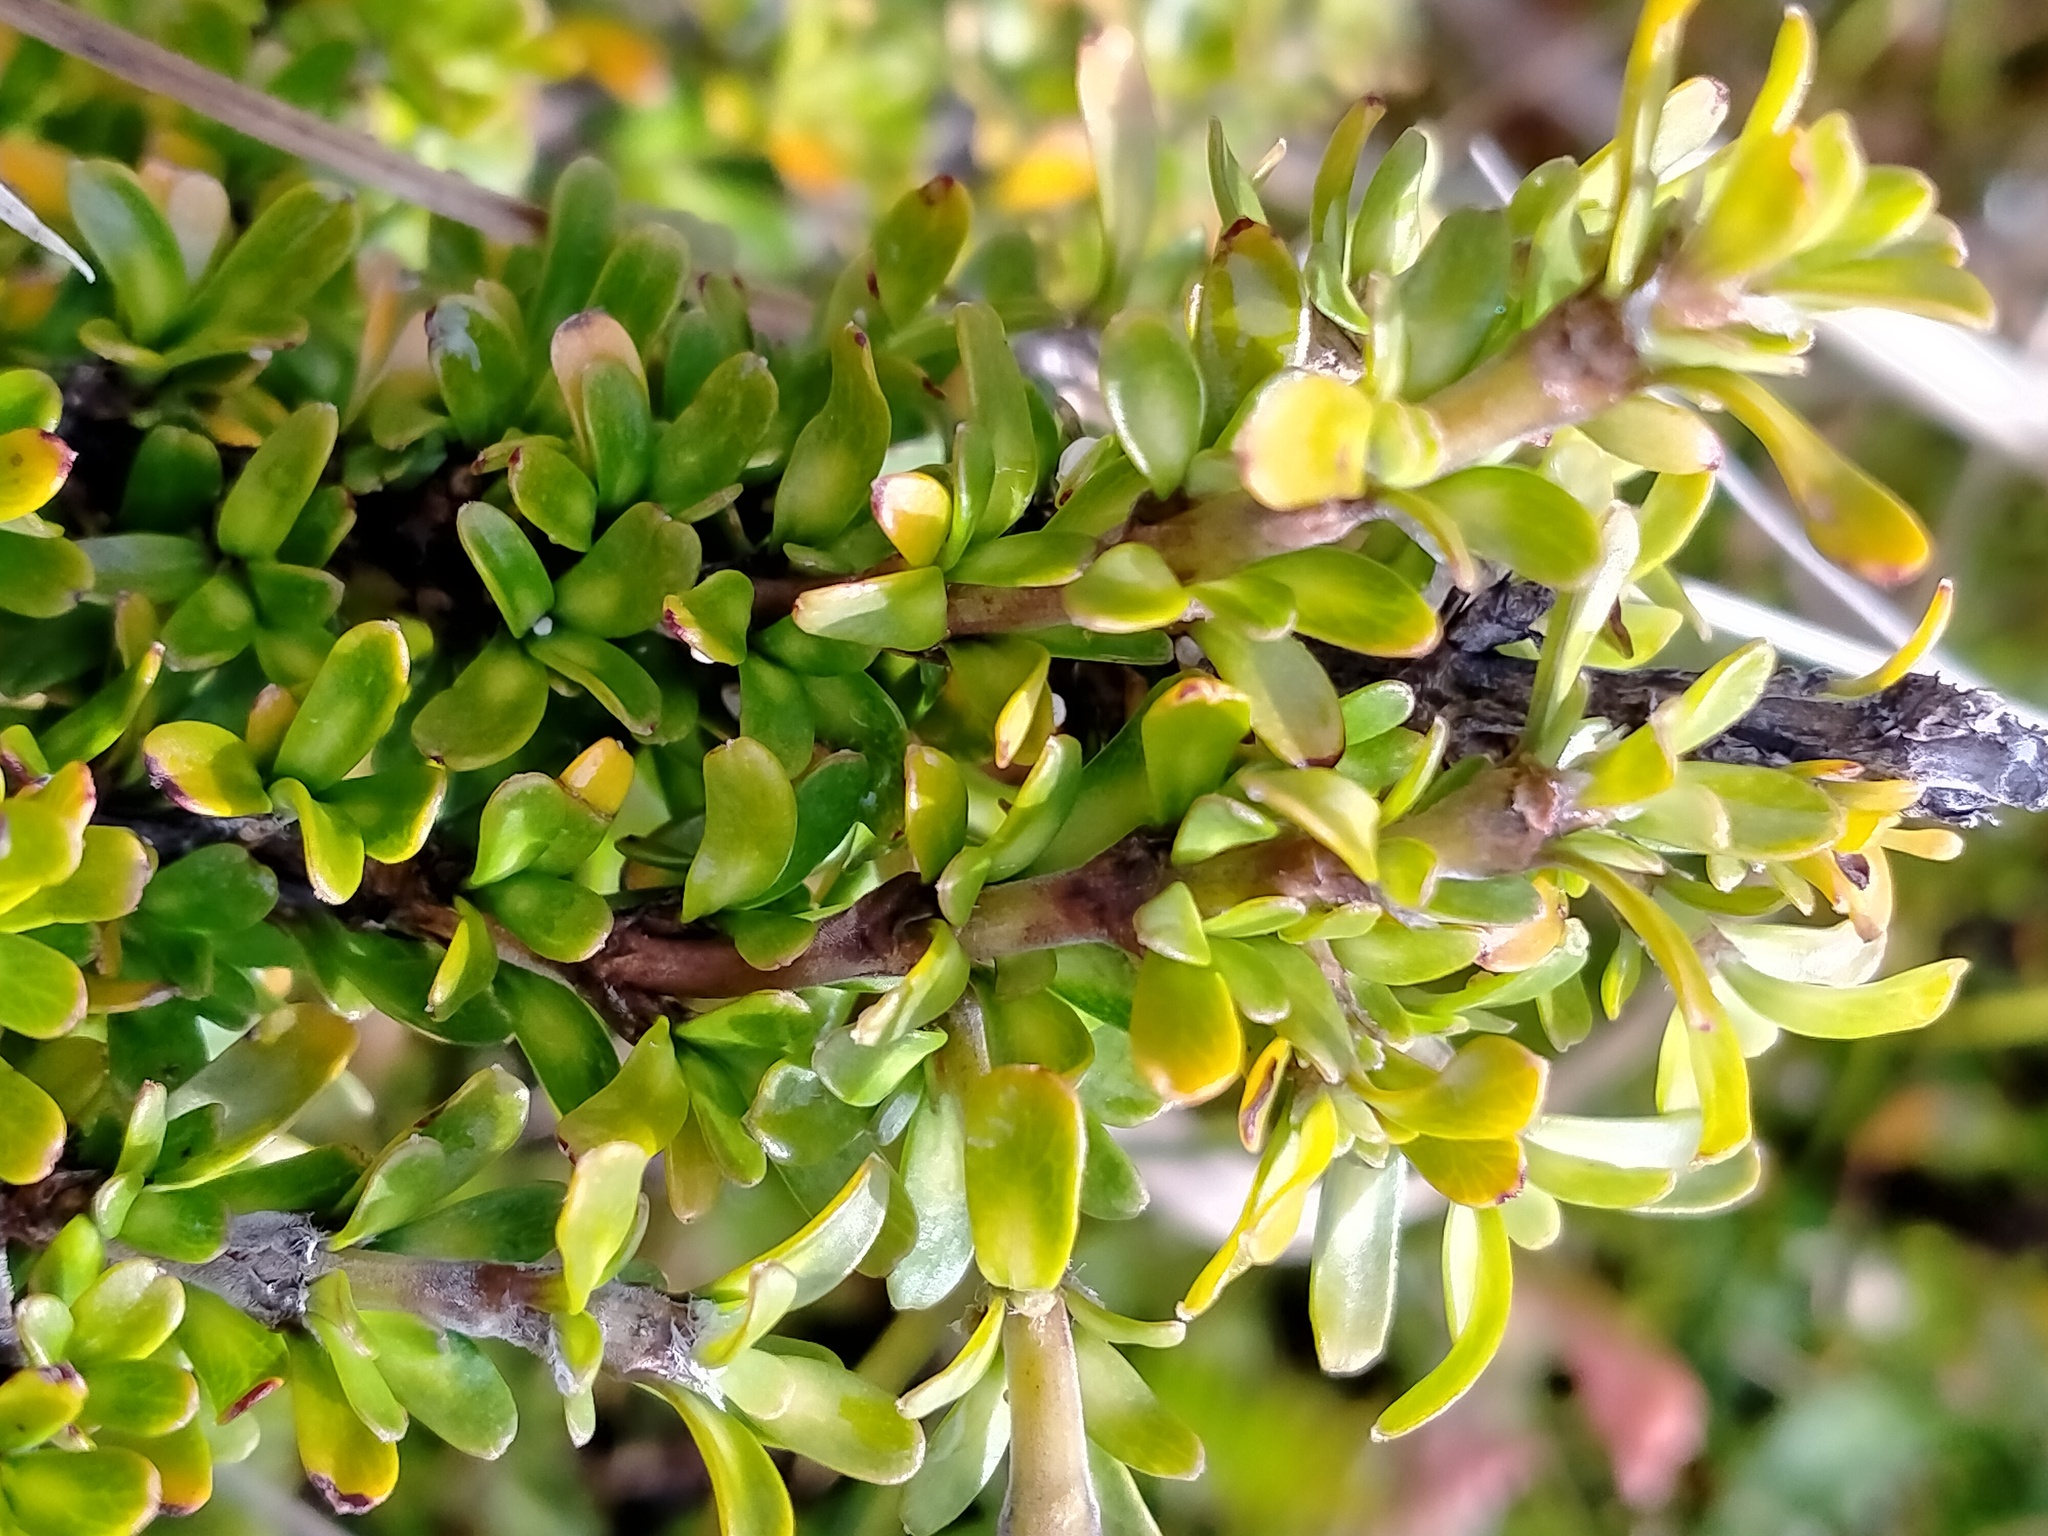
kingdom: Plantae
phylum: Tracheophyta
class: Magnoliopsida
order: Gentianales
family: Rubiaceae
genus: Coprosma
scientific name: Coprosma perpusilla
